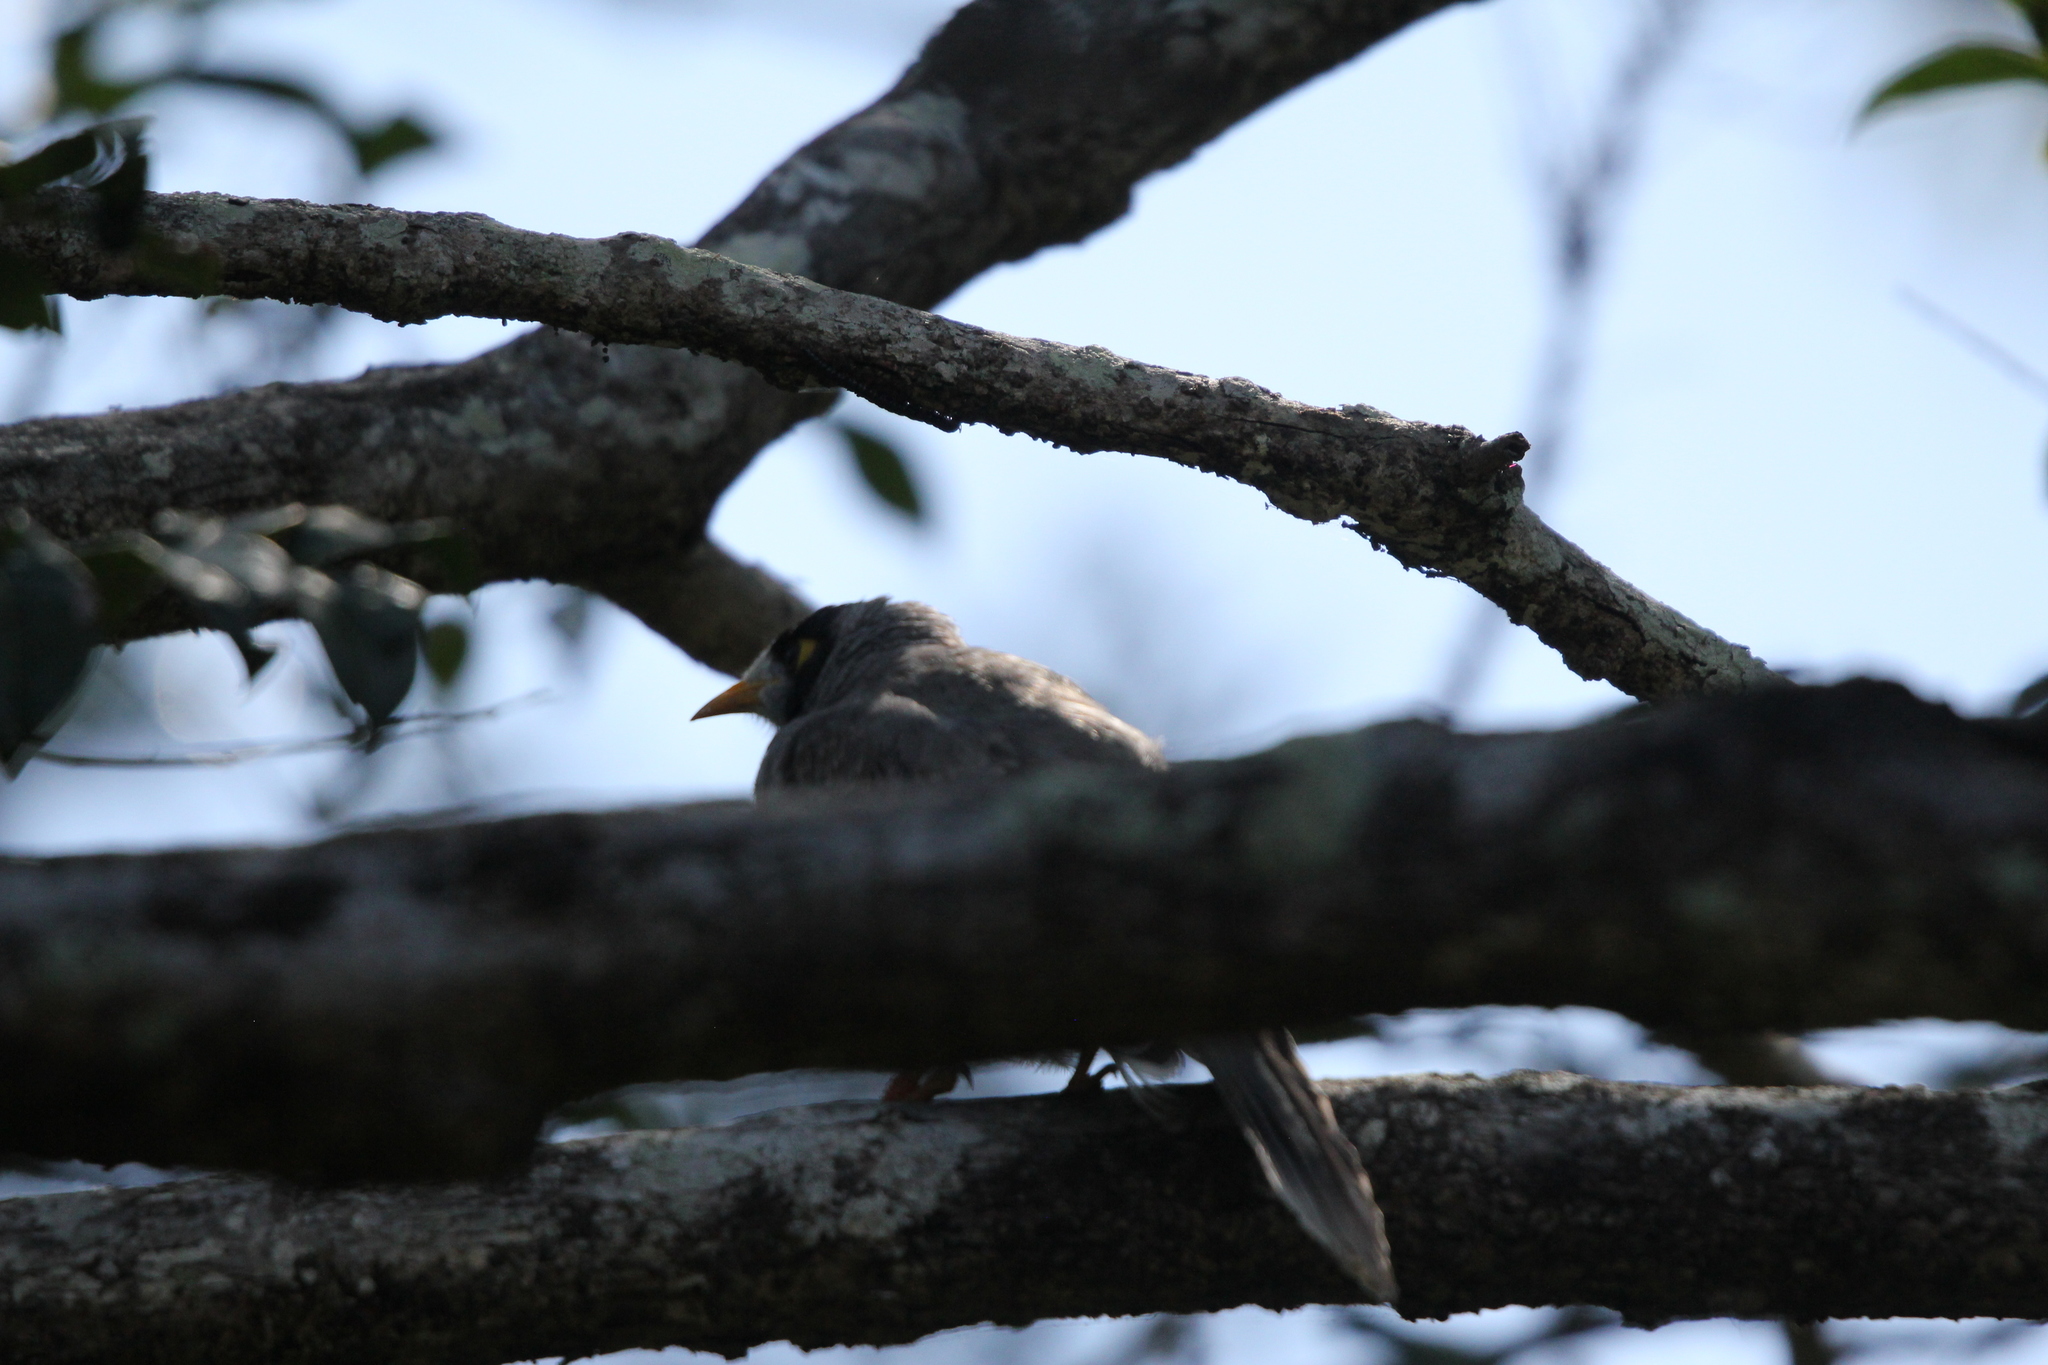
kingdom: Animalia
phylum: Chordata
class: Aves
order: Passeriformes
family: Meliphagidae
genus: Manorina
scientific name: Manorina melanocephala
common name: Noisy miner
